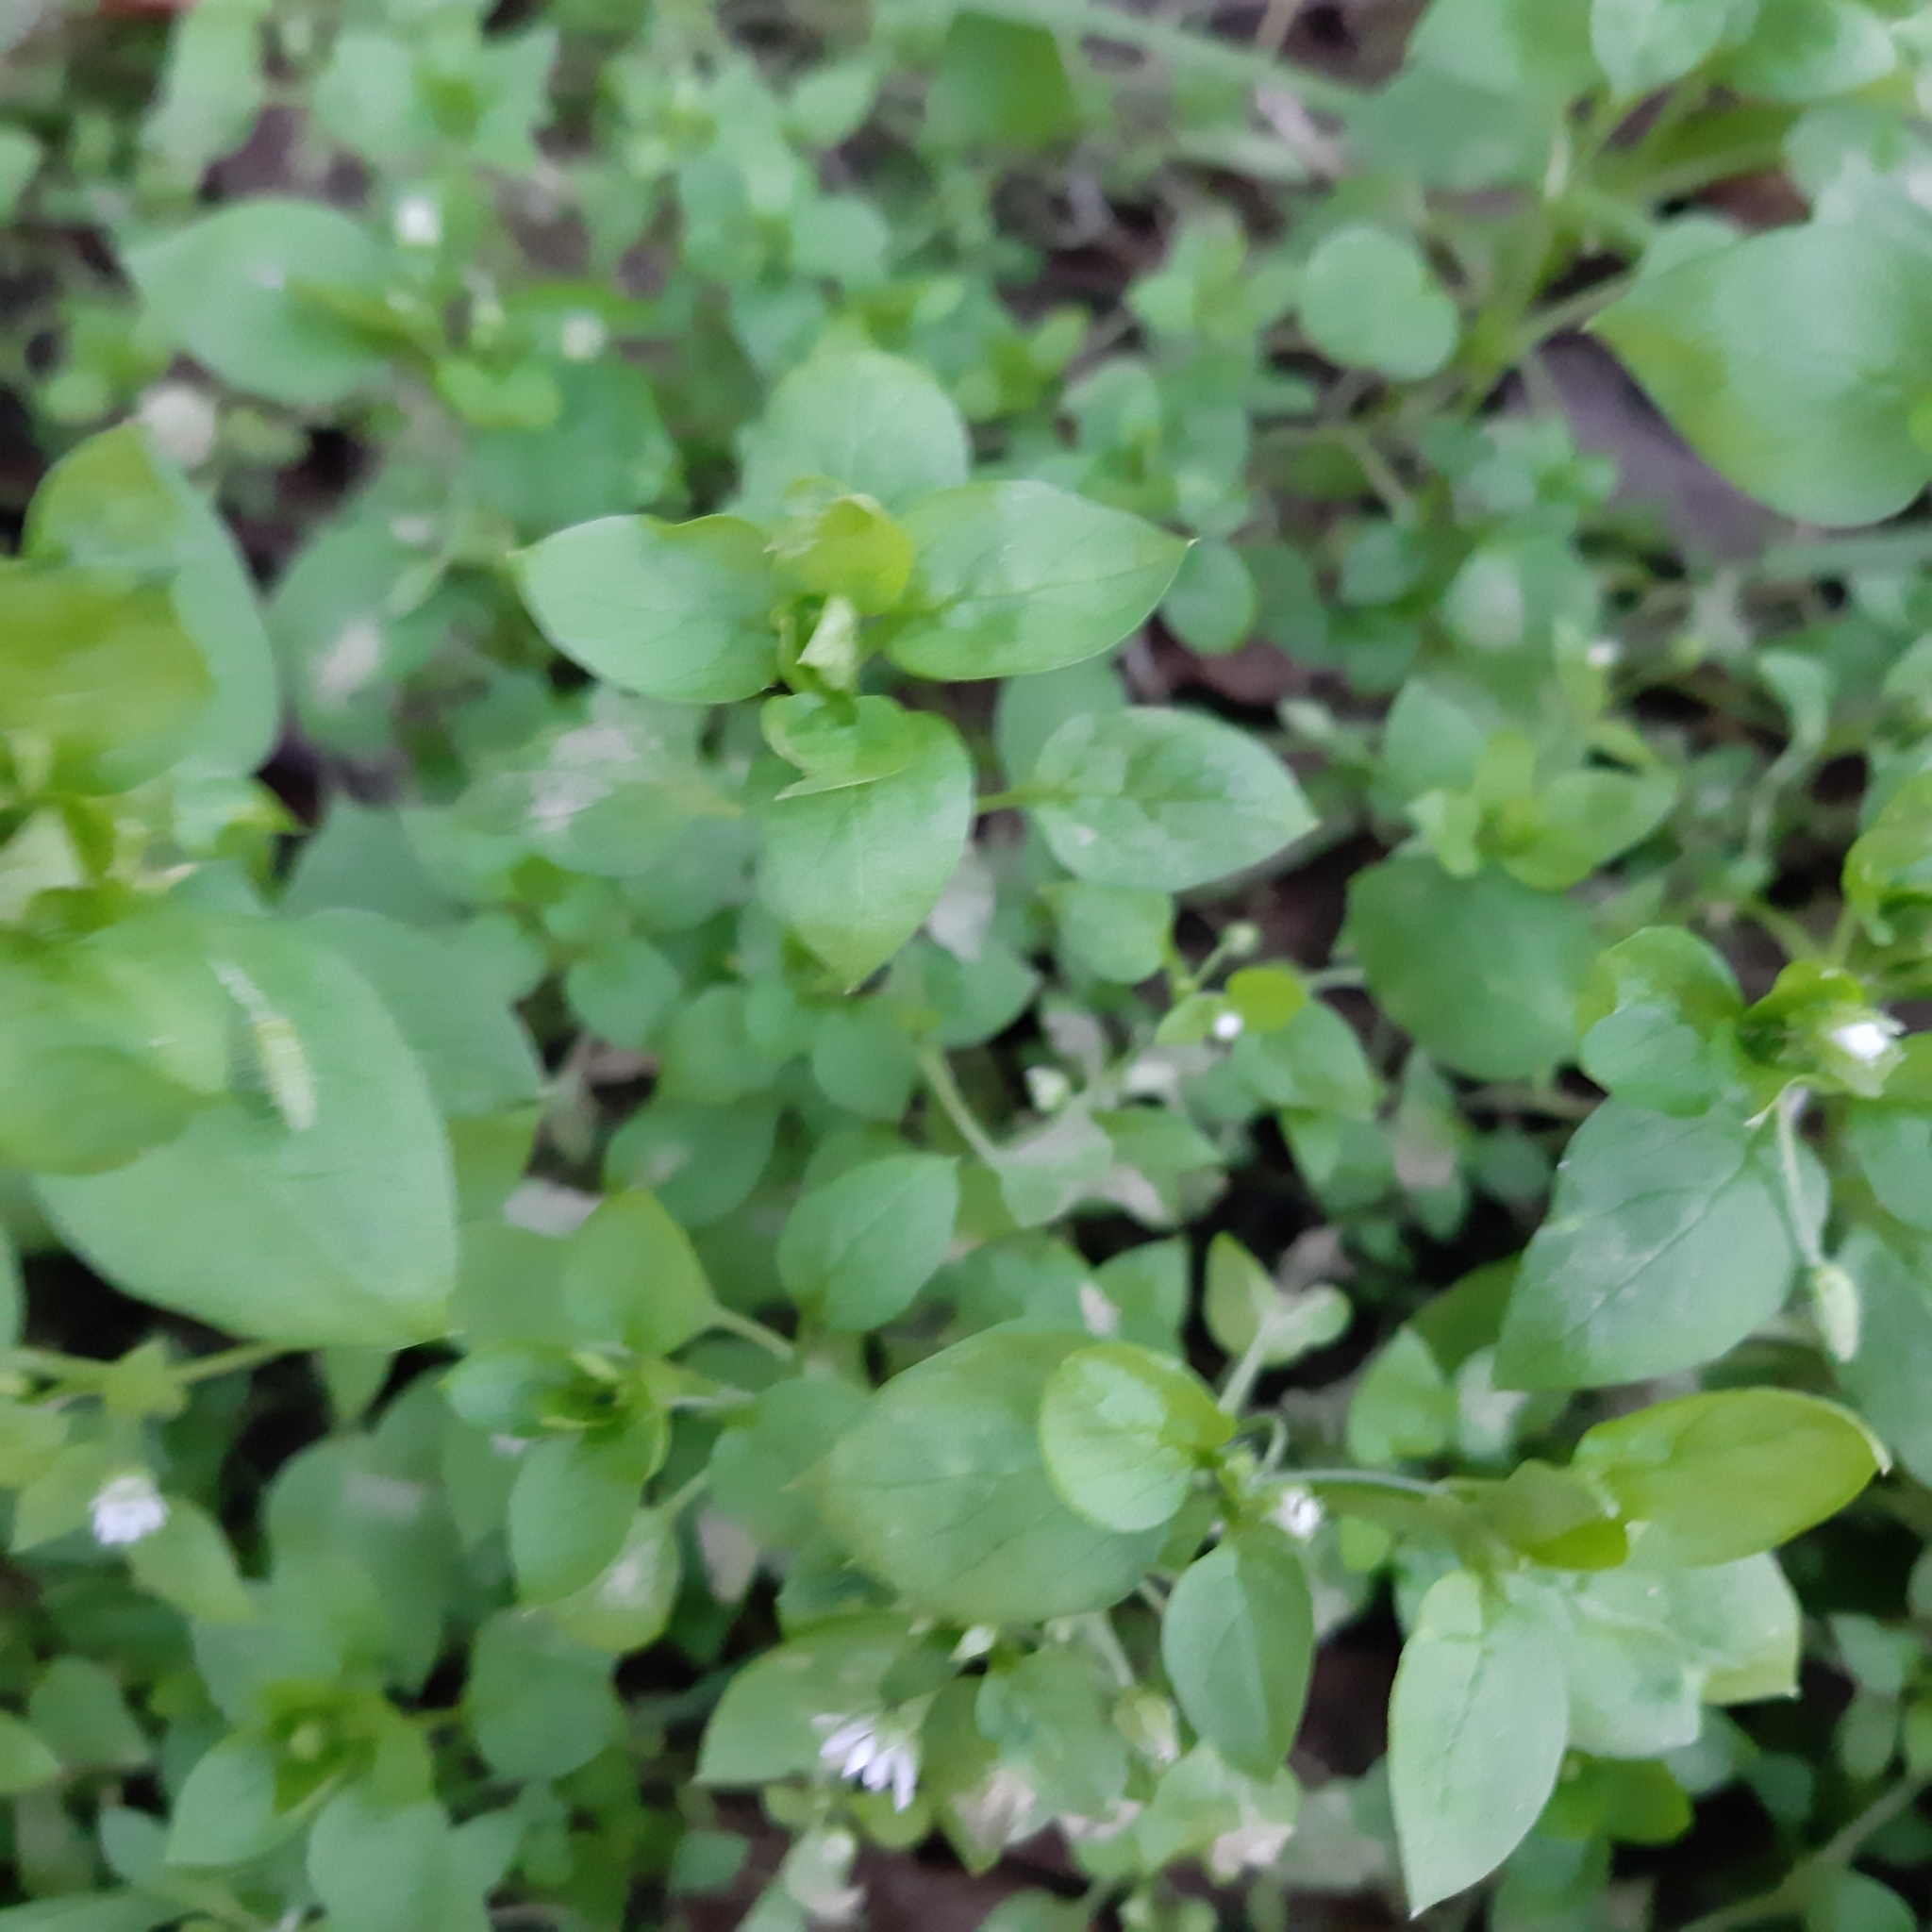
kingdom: Plantae
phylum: Tracheophyta
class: Magnoliopsida
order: Caryophyllales
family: Caryophyllaceae
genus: Stellaria
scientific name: Stellaria media
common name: Common chickweed
